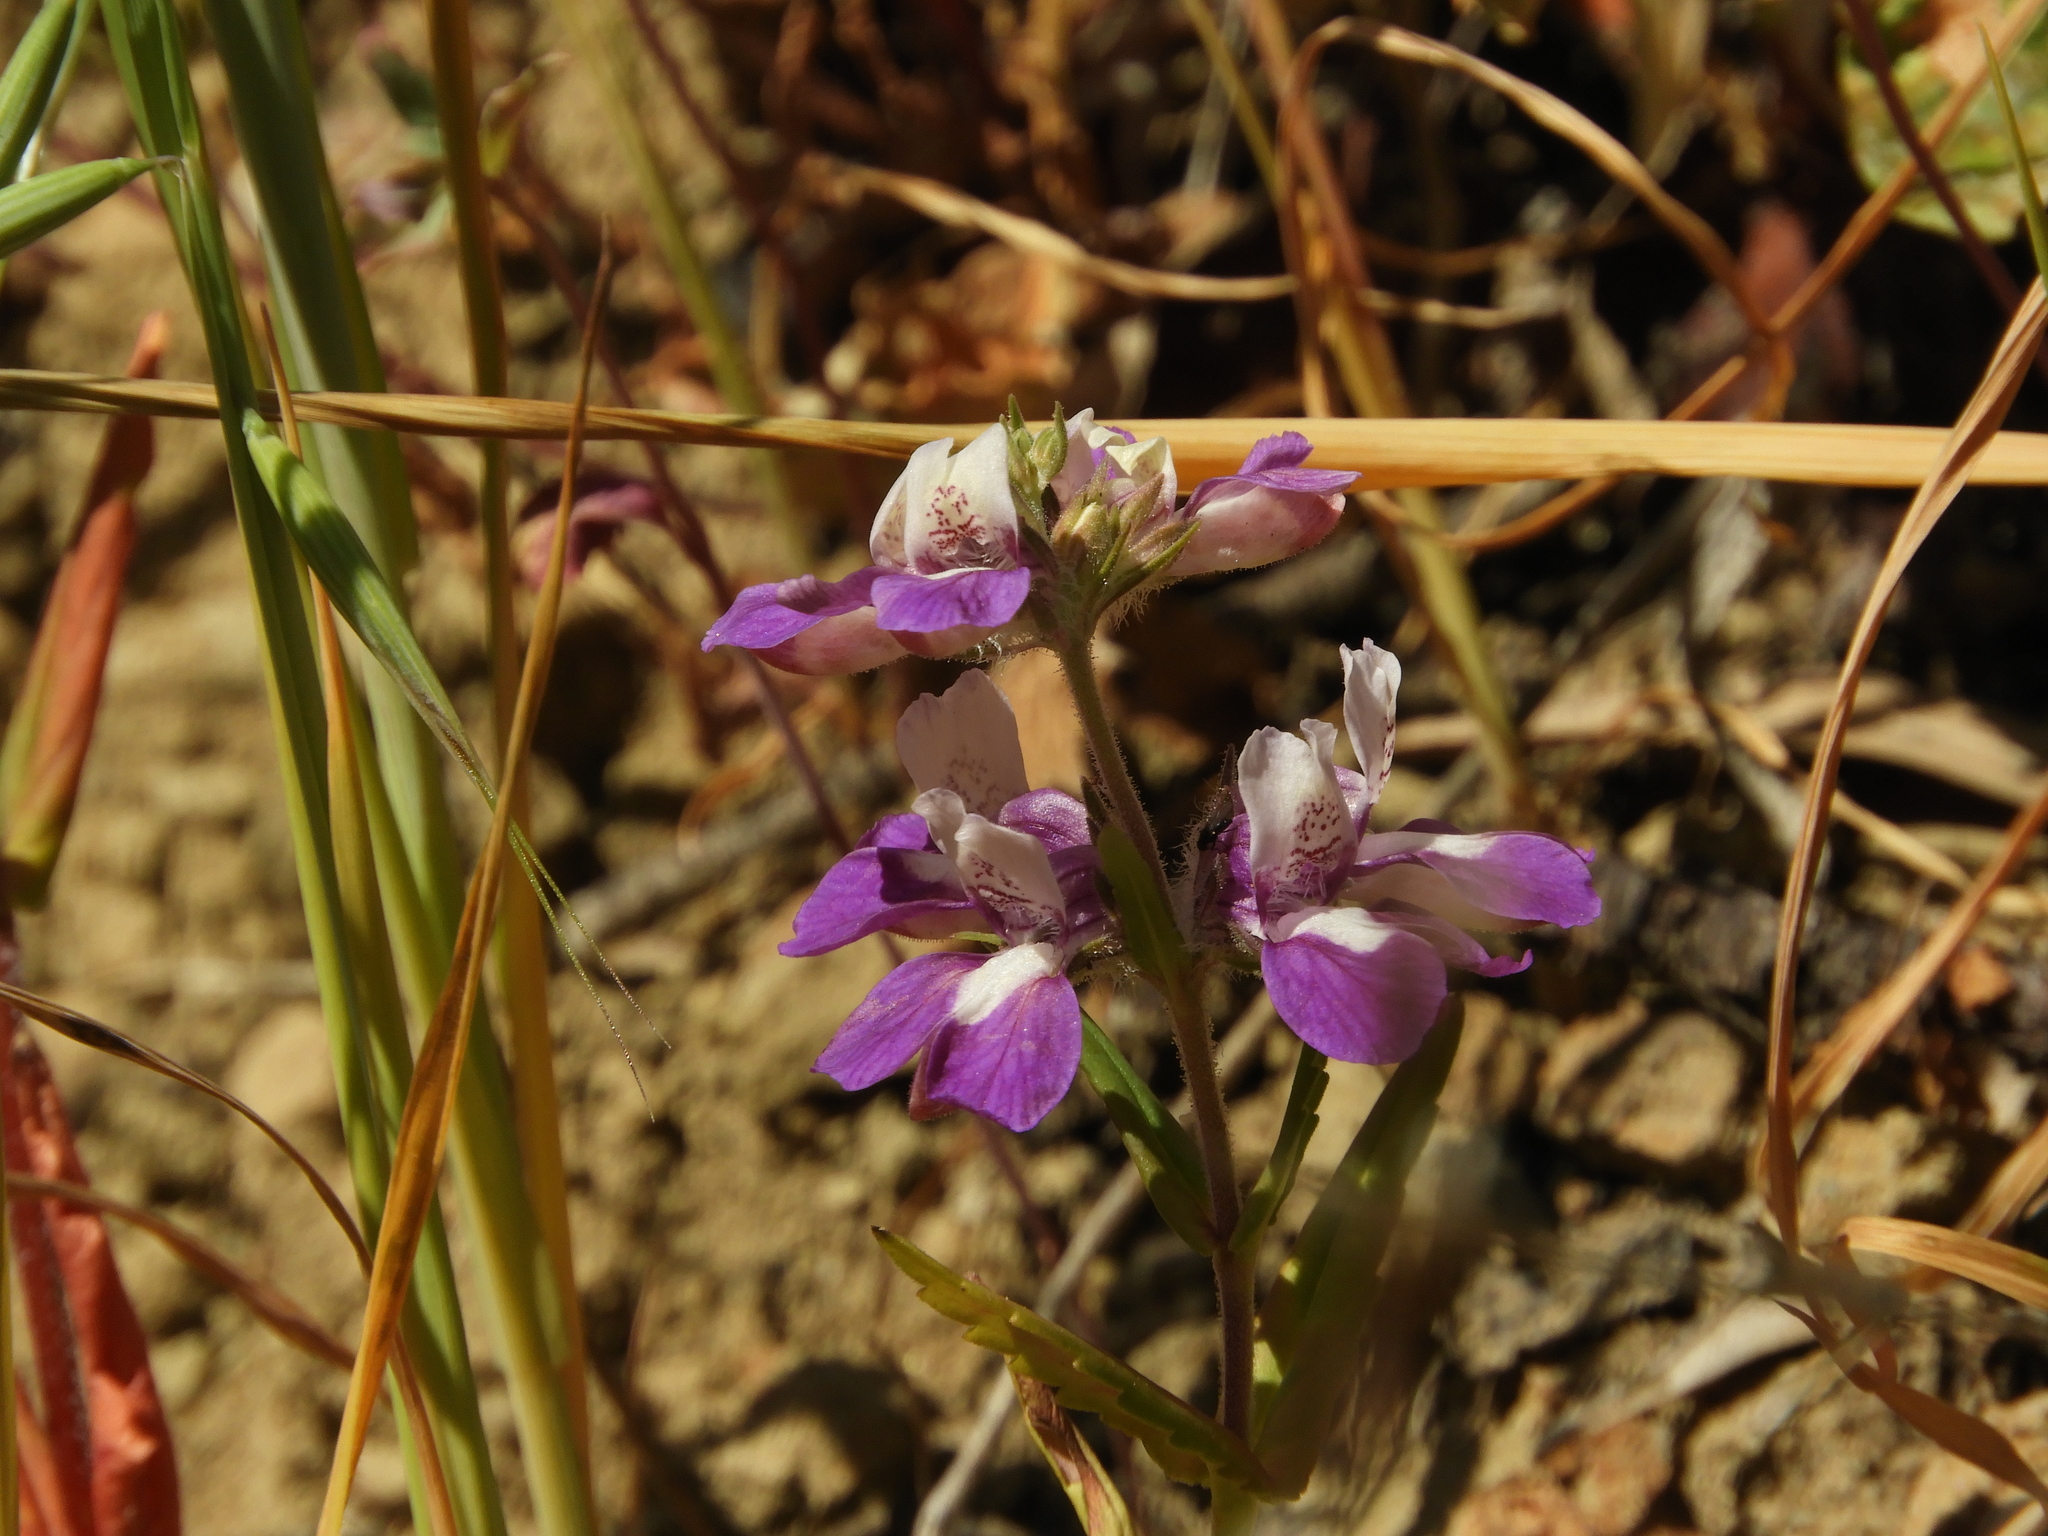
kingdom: Plantae
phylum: Tracheophyta
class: Magnoliopsida
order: Lamiales
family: Plantaginaceae
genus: Collinsia
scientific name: Collinsia heterophylla
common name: Chinese-houses
